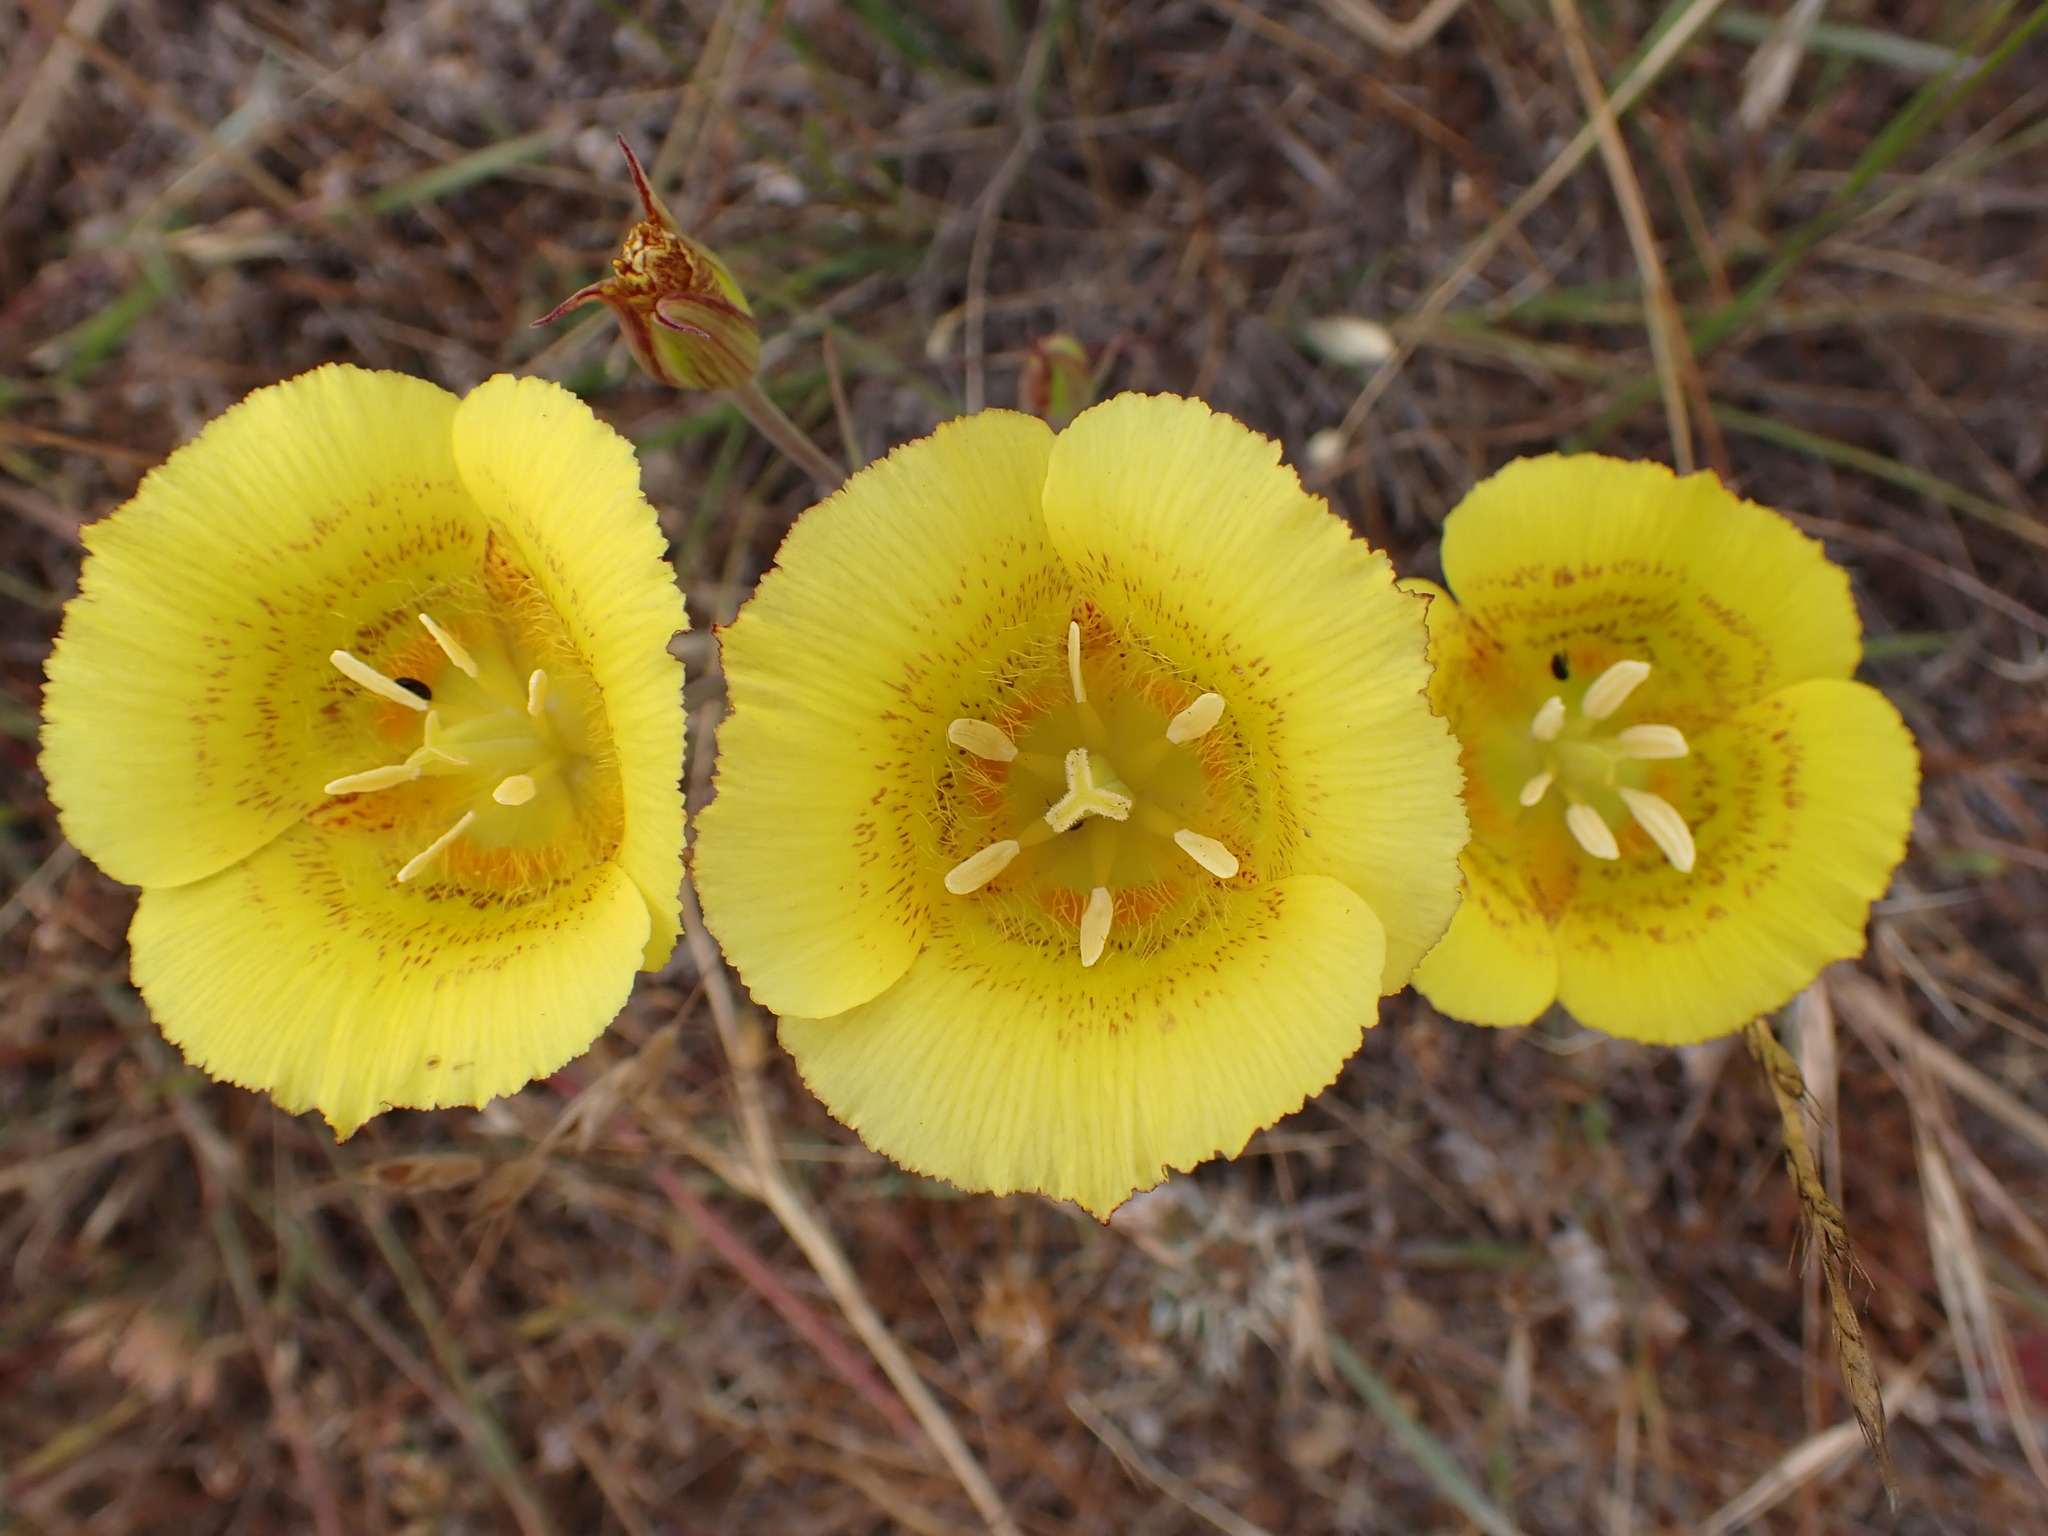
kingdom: Plantae
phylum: Tracheophyta
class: Liliopsida
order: Liliales
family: Liliaceae
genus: Calochortus
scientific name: Calochortus luteus
